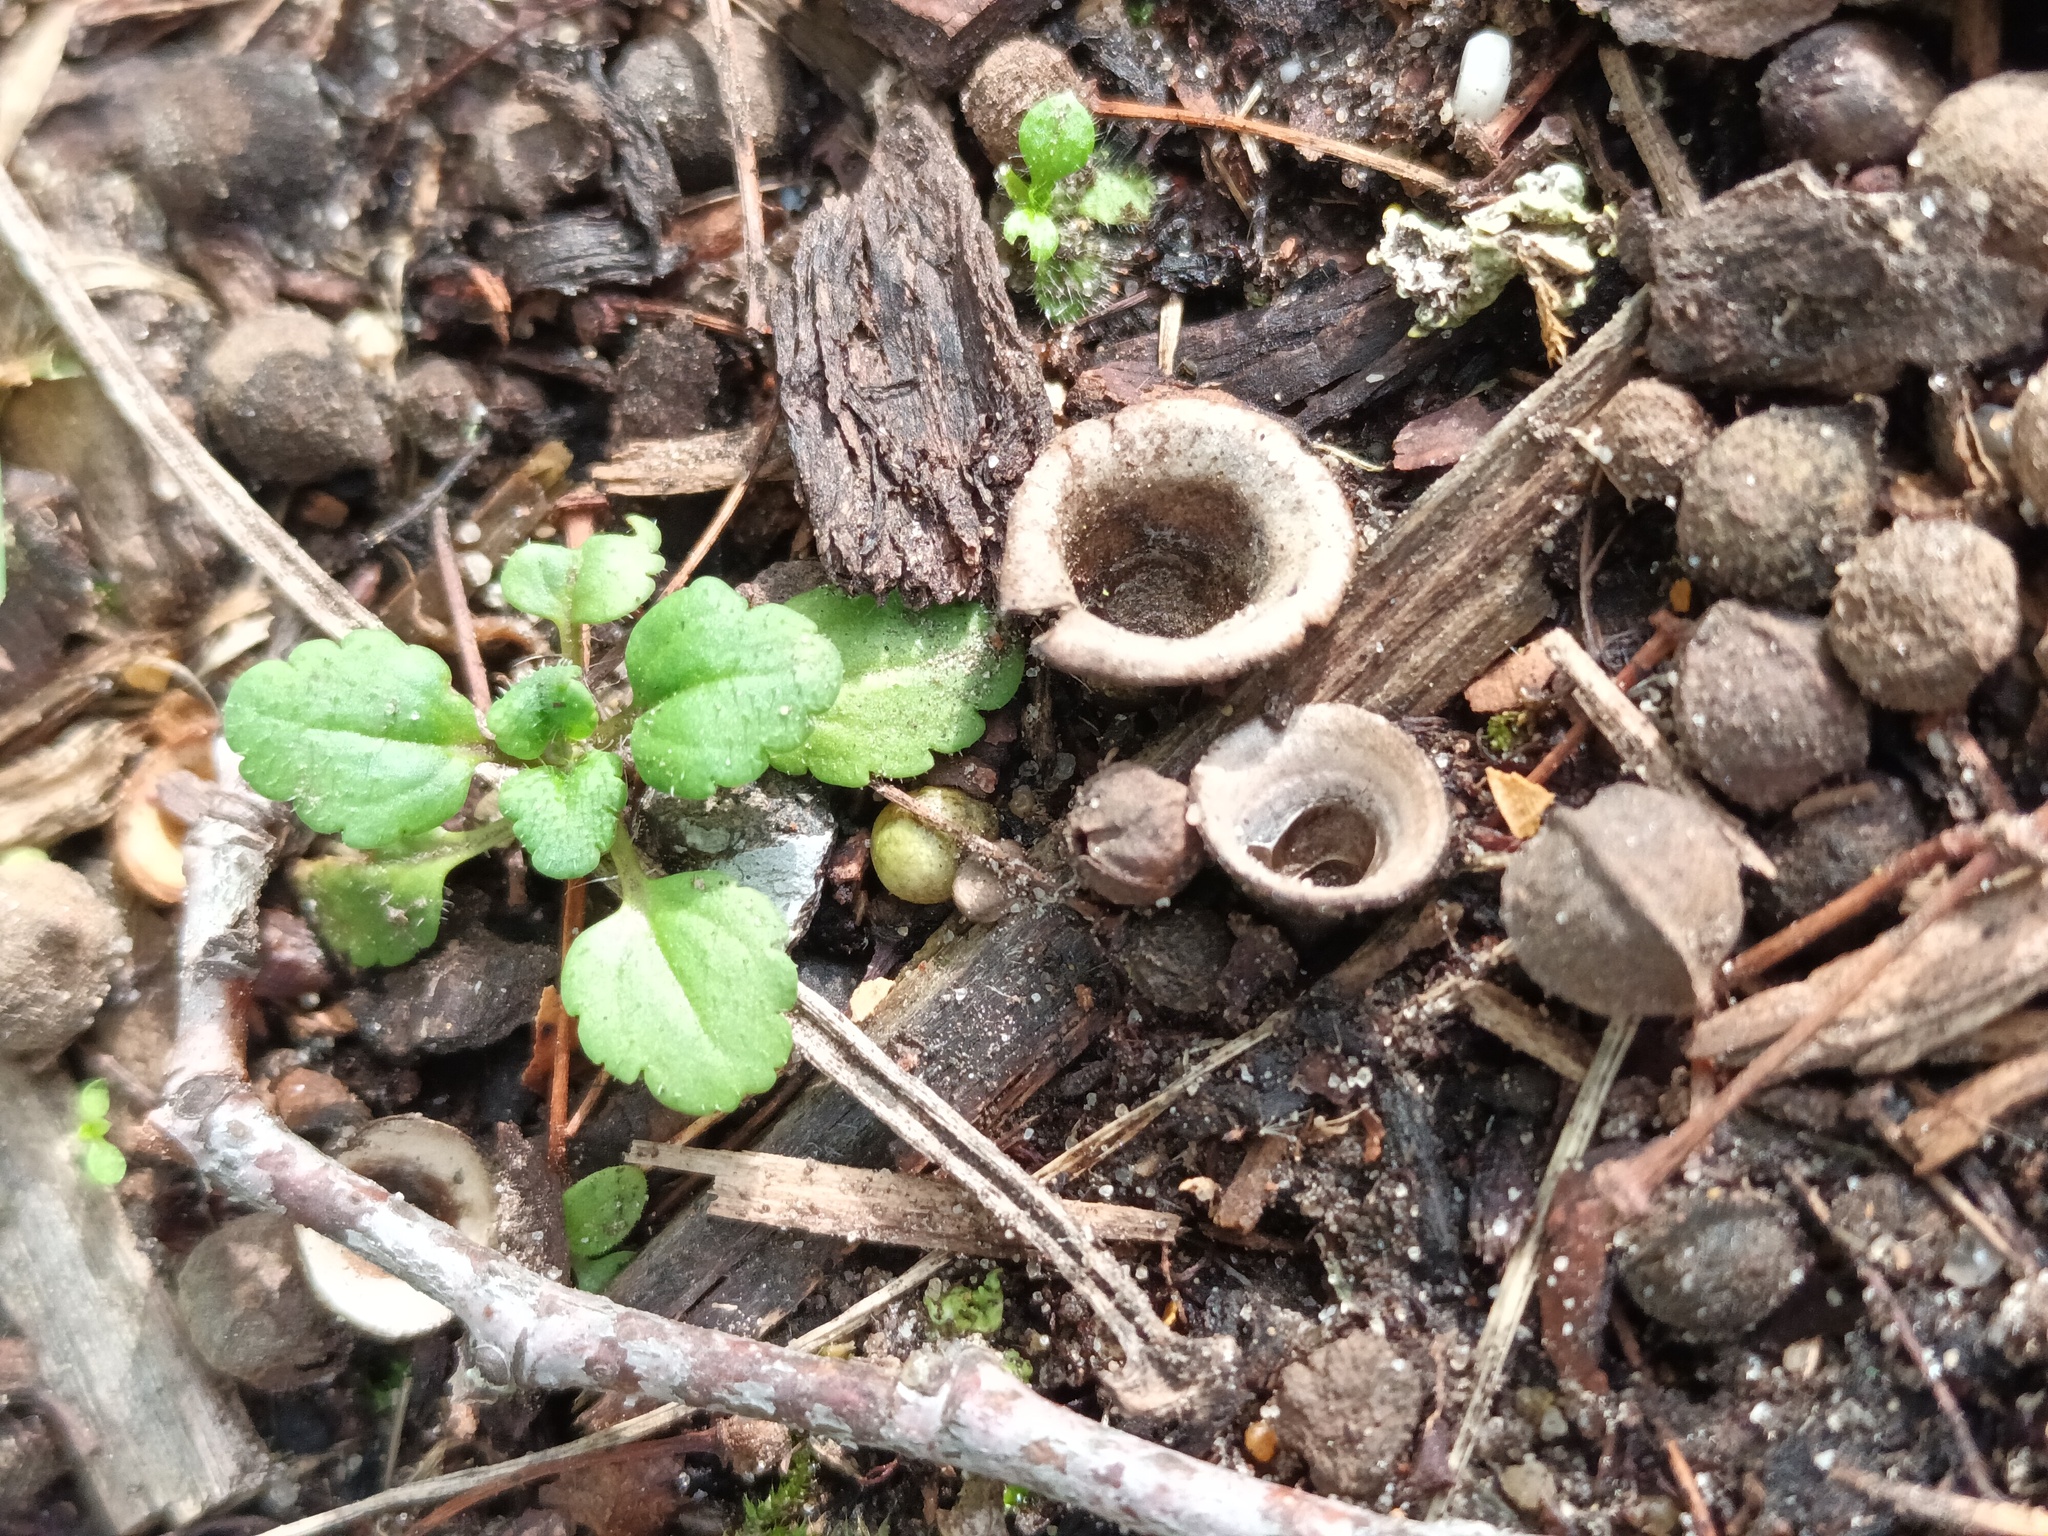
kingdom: Fungi
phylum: Basidiomycota
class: Agaricomycetes
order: Agaricales
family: Agaricaceae
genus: Cyathus
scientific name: Cyathus olla
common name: Field bird's nest
